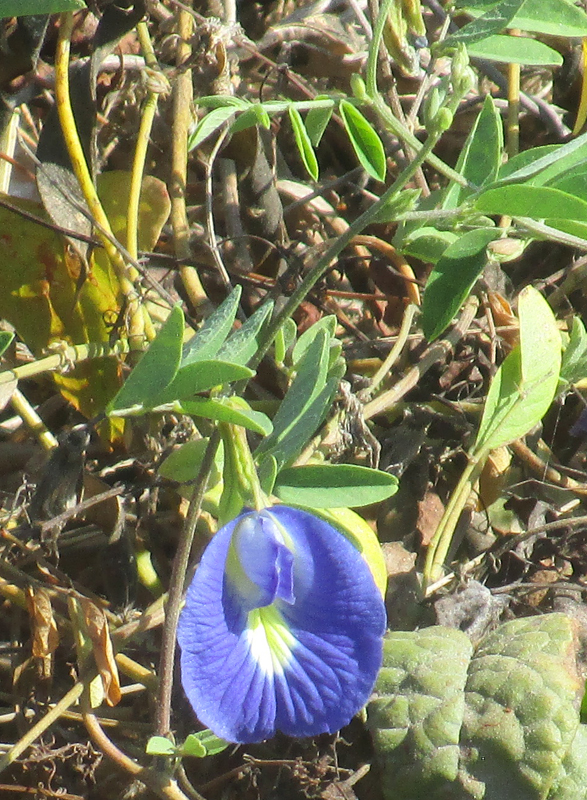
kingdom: Plantae
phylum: Tracheophyta
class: Magnoliopsida
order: Fabales
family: Fabaceae
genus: Clitoria
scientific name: Clitoria ternatea
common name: Asian pigeonwings
